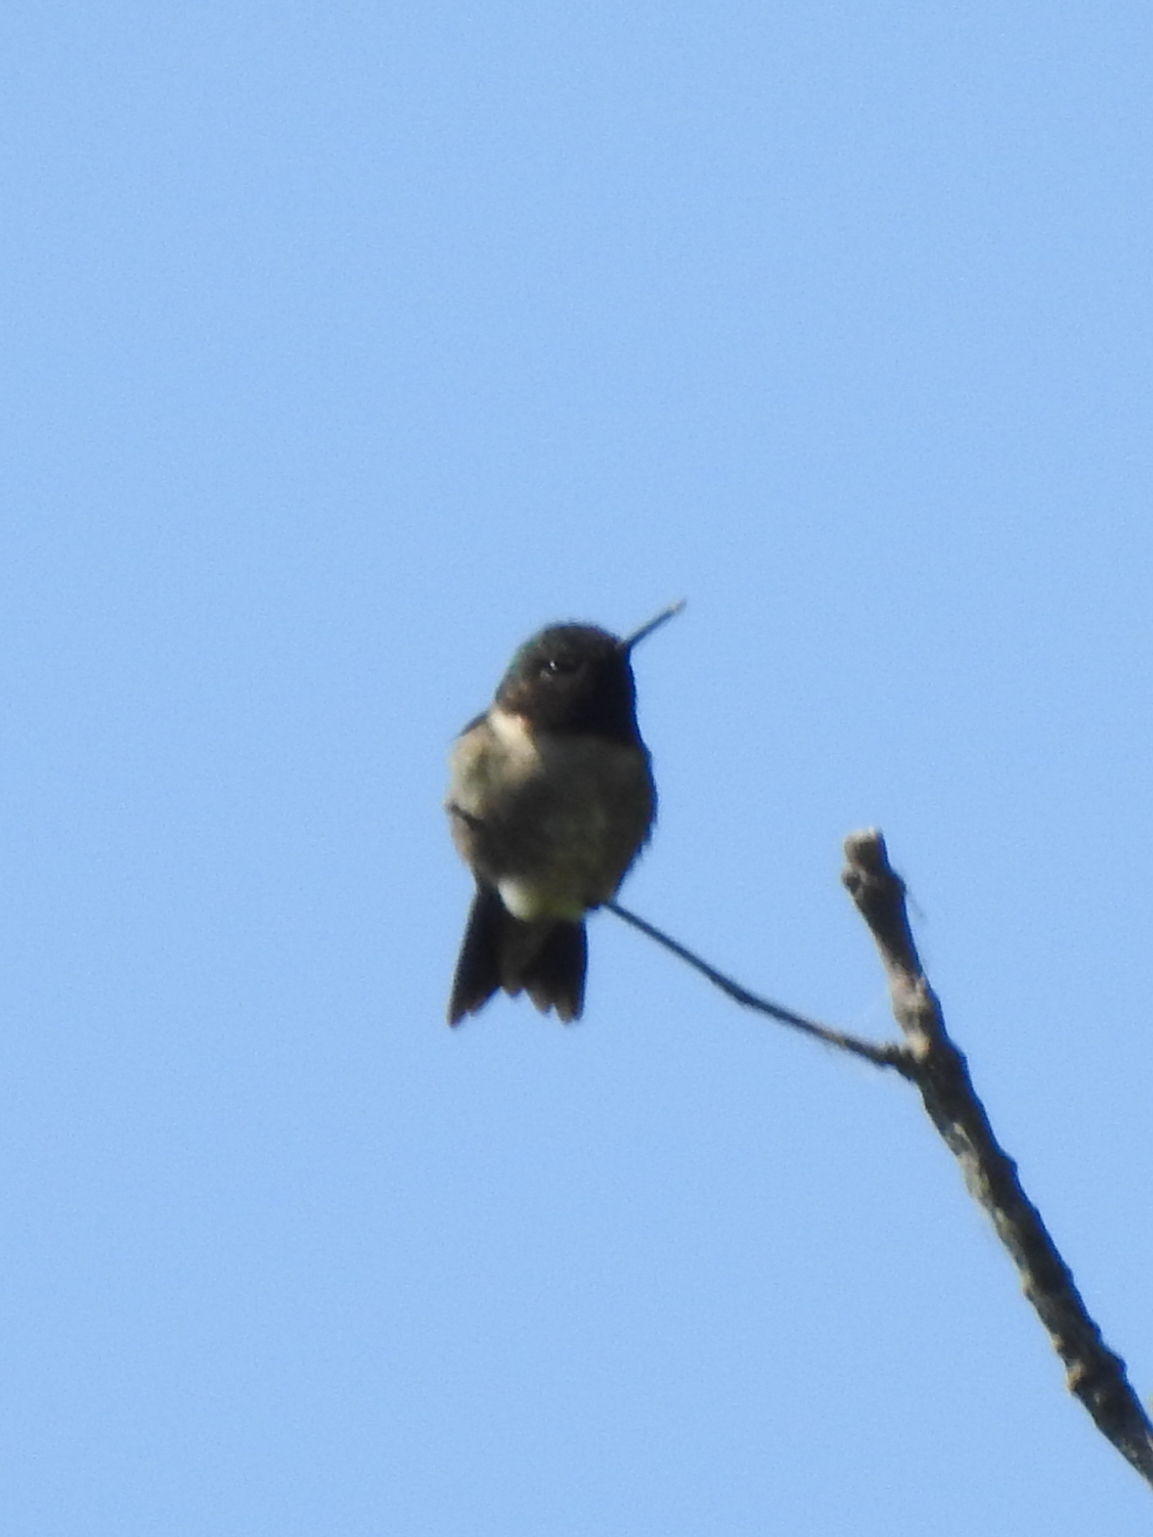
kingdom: Animalia
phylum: Chordata
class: Aves
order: Apodiformes
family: Trochilidae
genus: Archilochus
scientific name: Archilochus colubris
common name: Ruby-throated hummingbird
